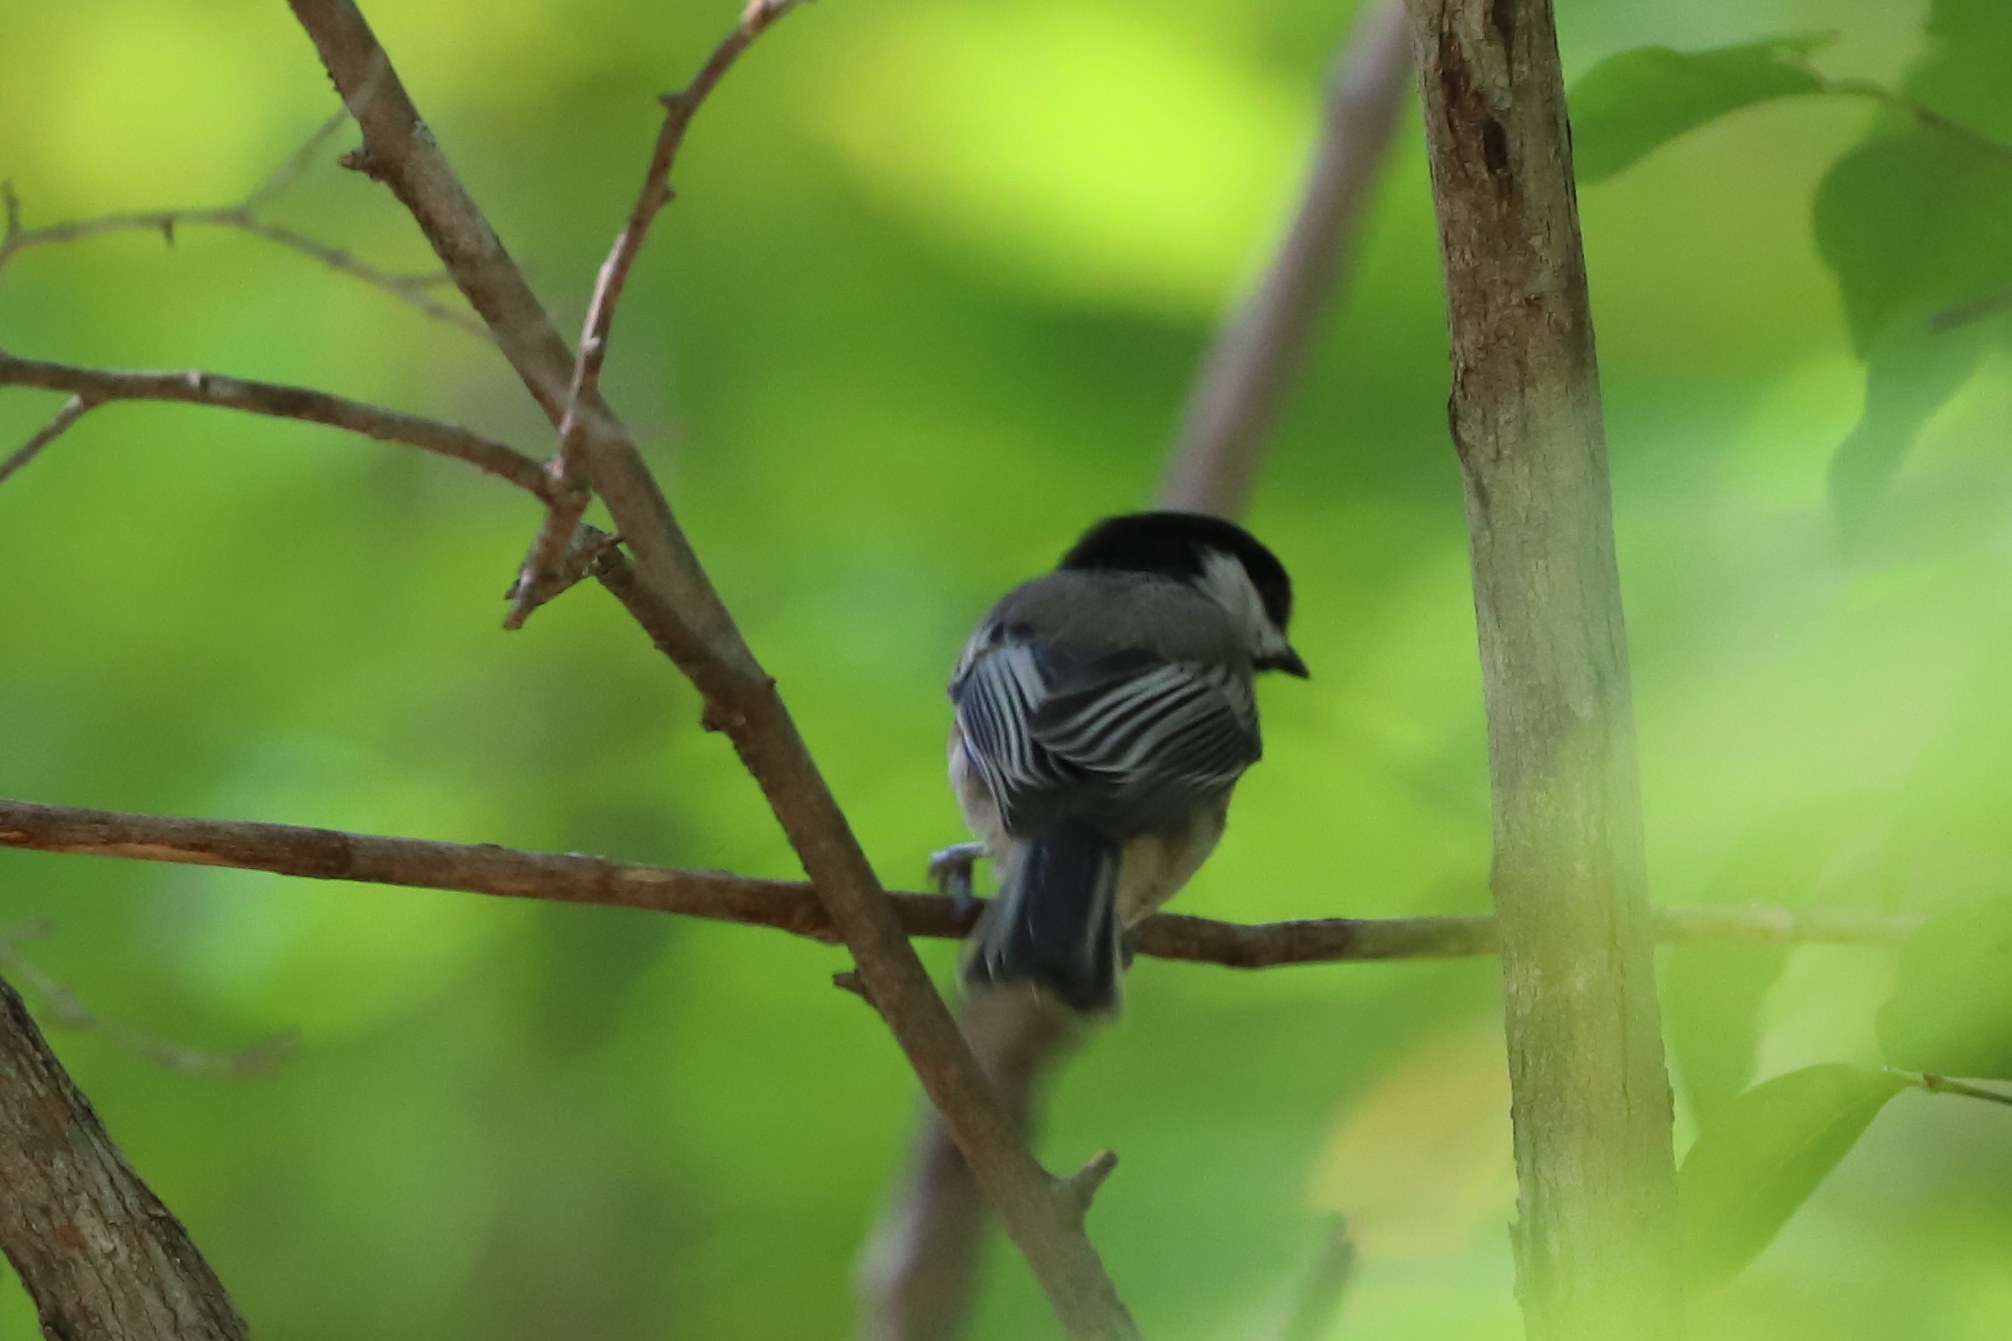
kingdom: Animalia
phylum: Chordata
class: Aves
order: Passeriformes
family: Paridae
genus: Poecile
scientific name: Poecile atricapillus
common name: Black-capped chickadee
